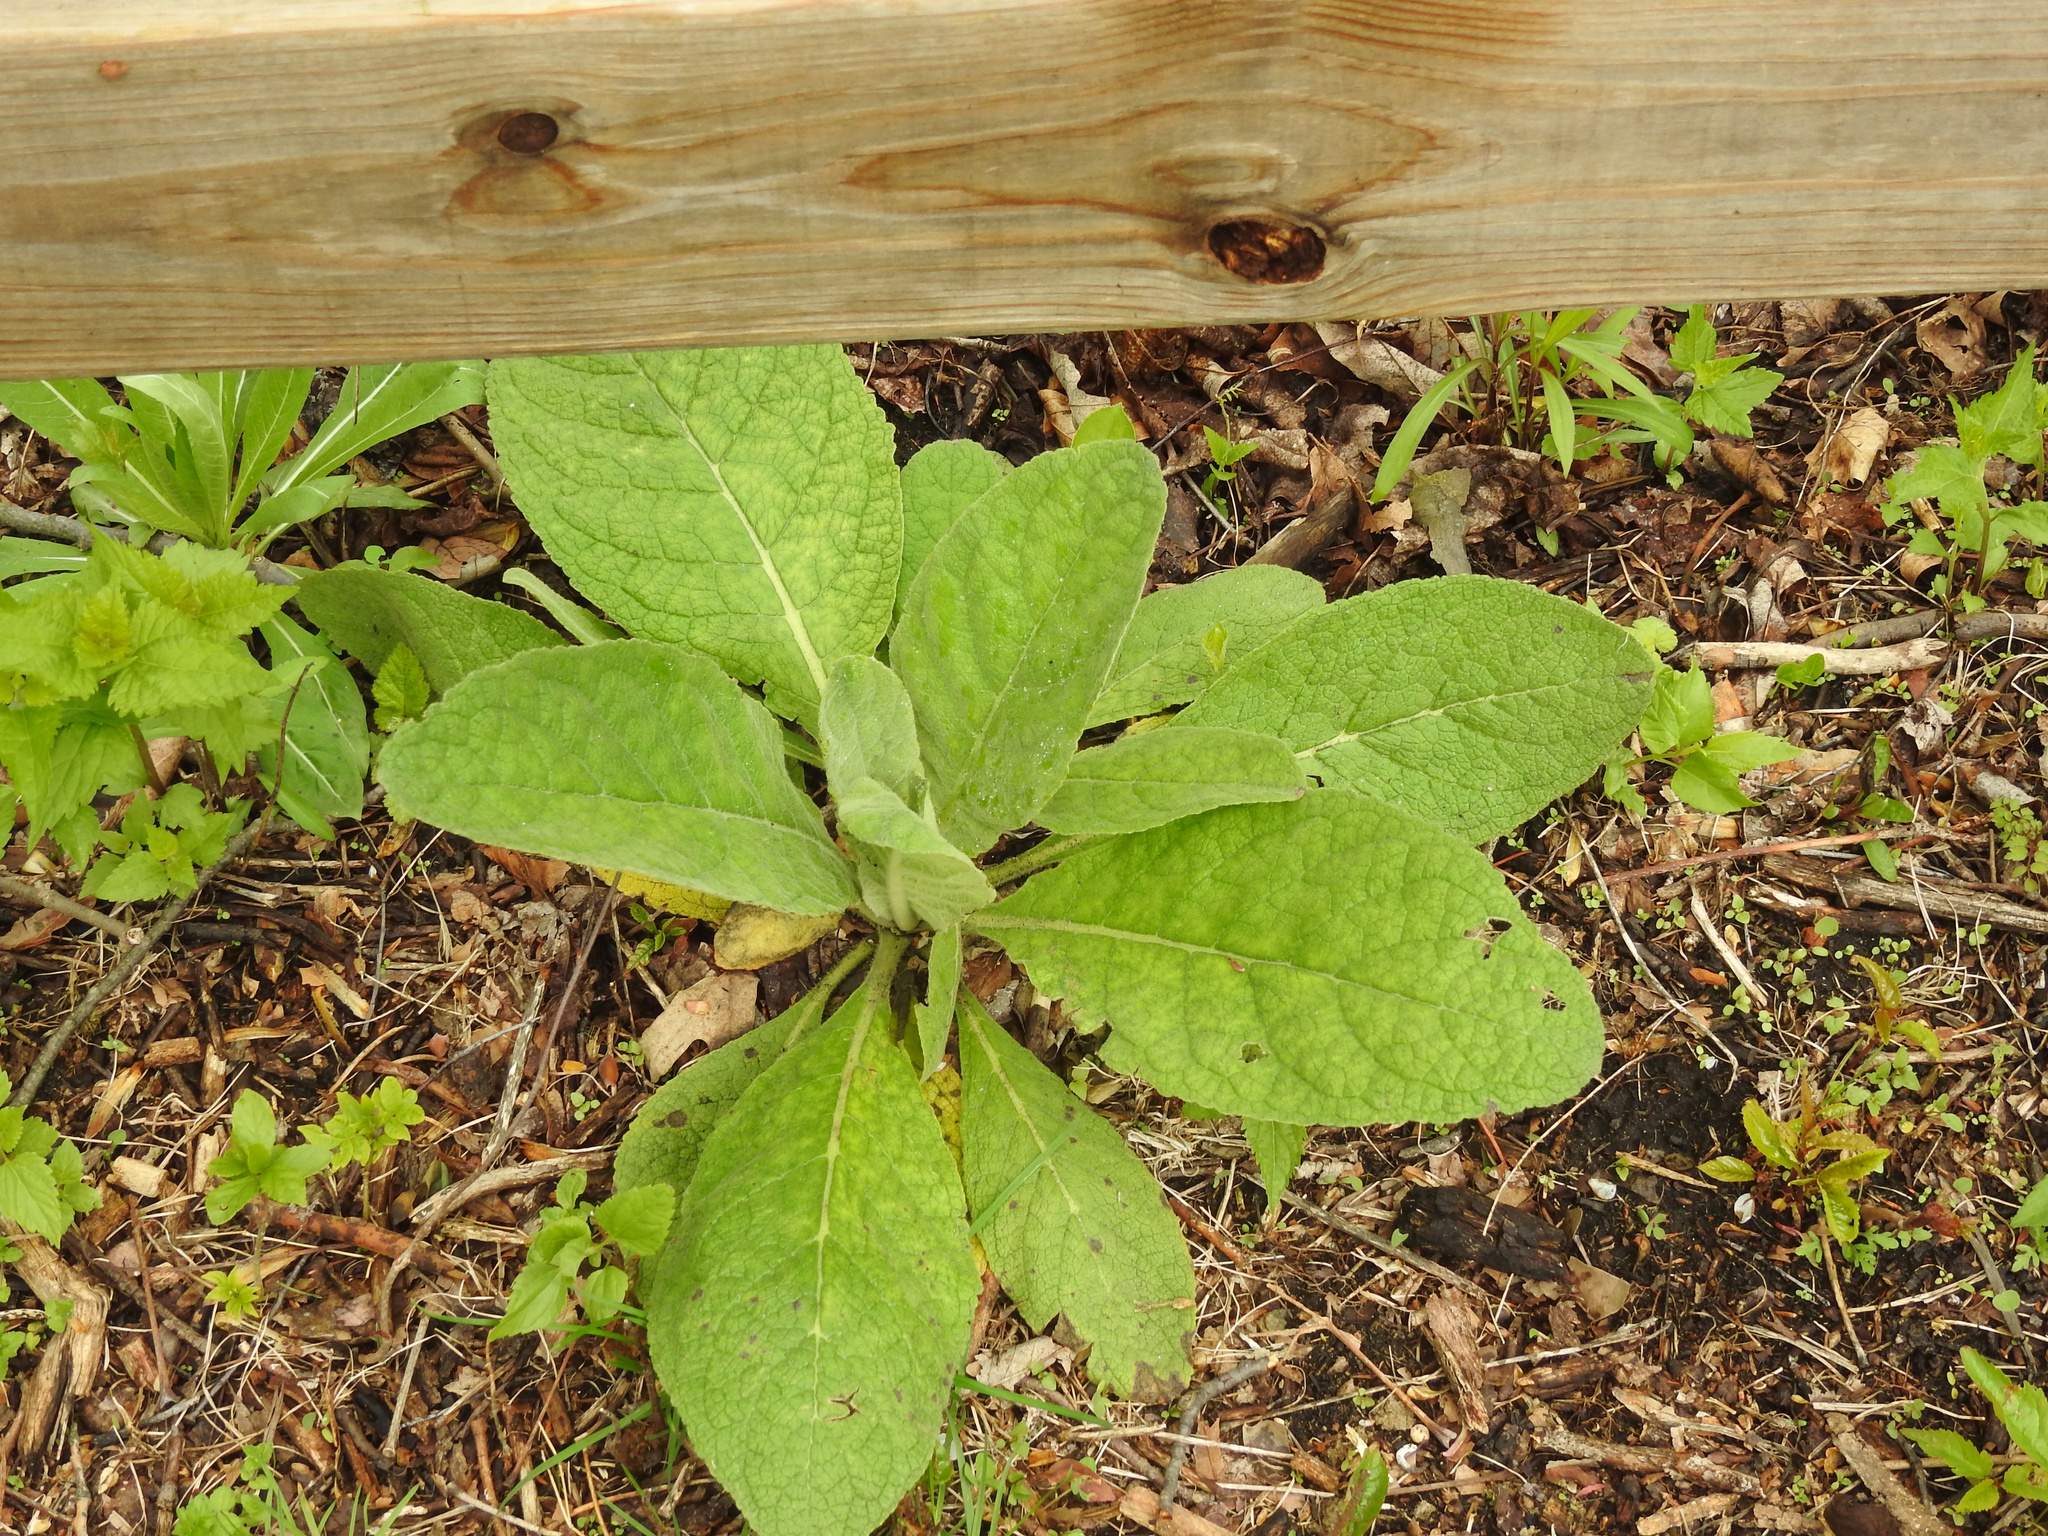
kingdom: Plantae
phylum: Tracheophyta
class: Magnoliopsida
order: Lamiales
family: Scrophulariaceae
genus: Verbascum
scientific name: Verbascum thapsus
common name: Common mullein
